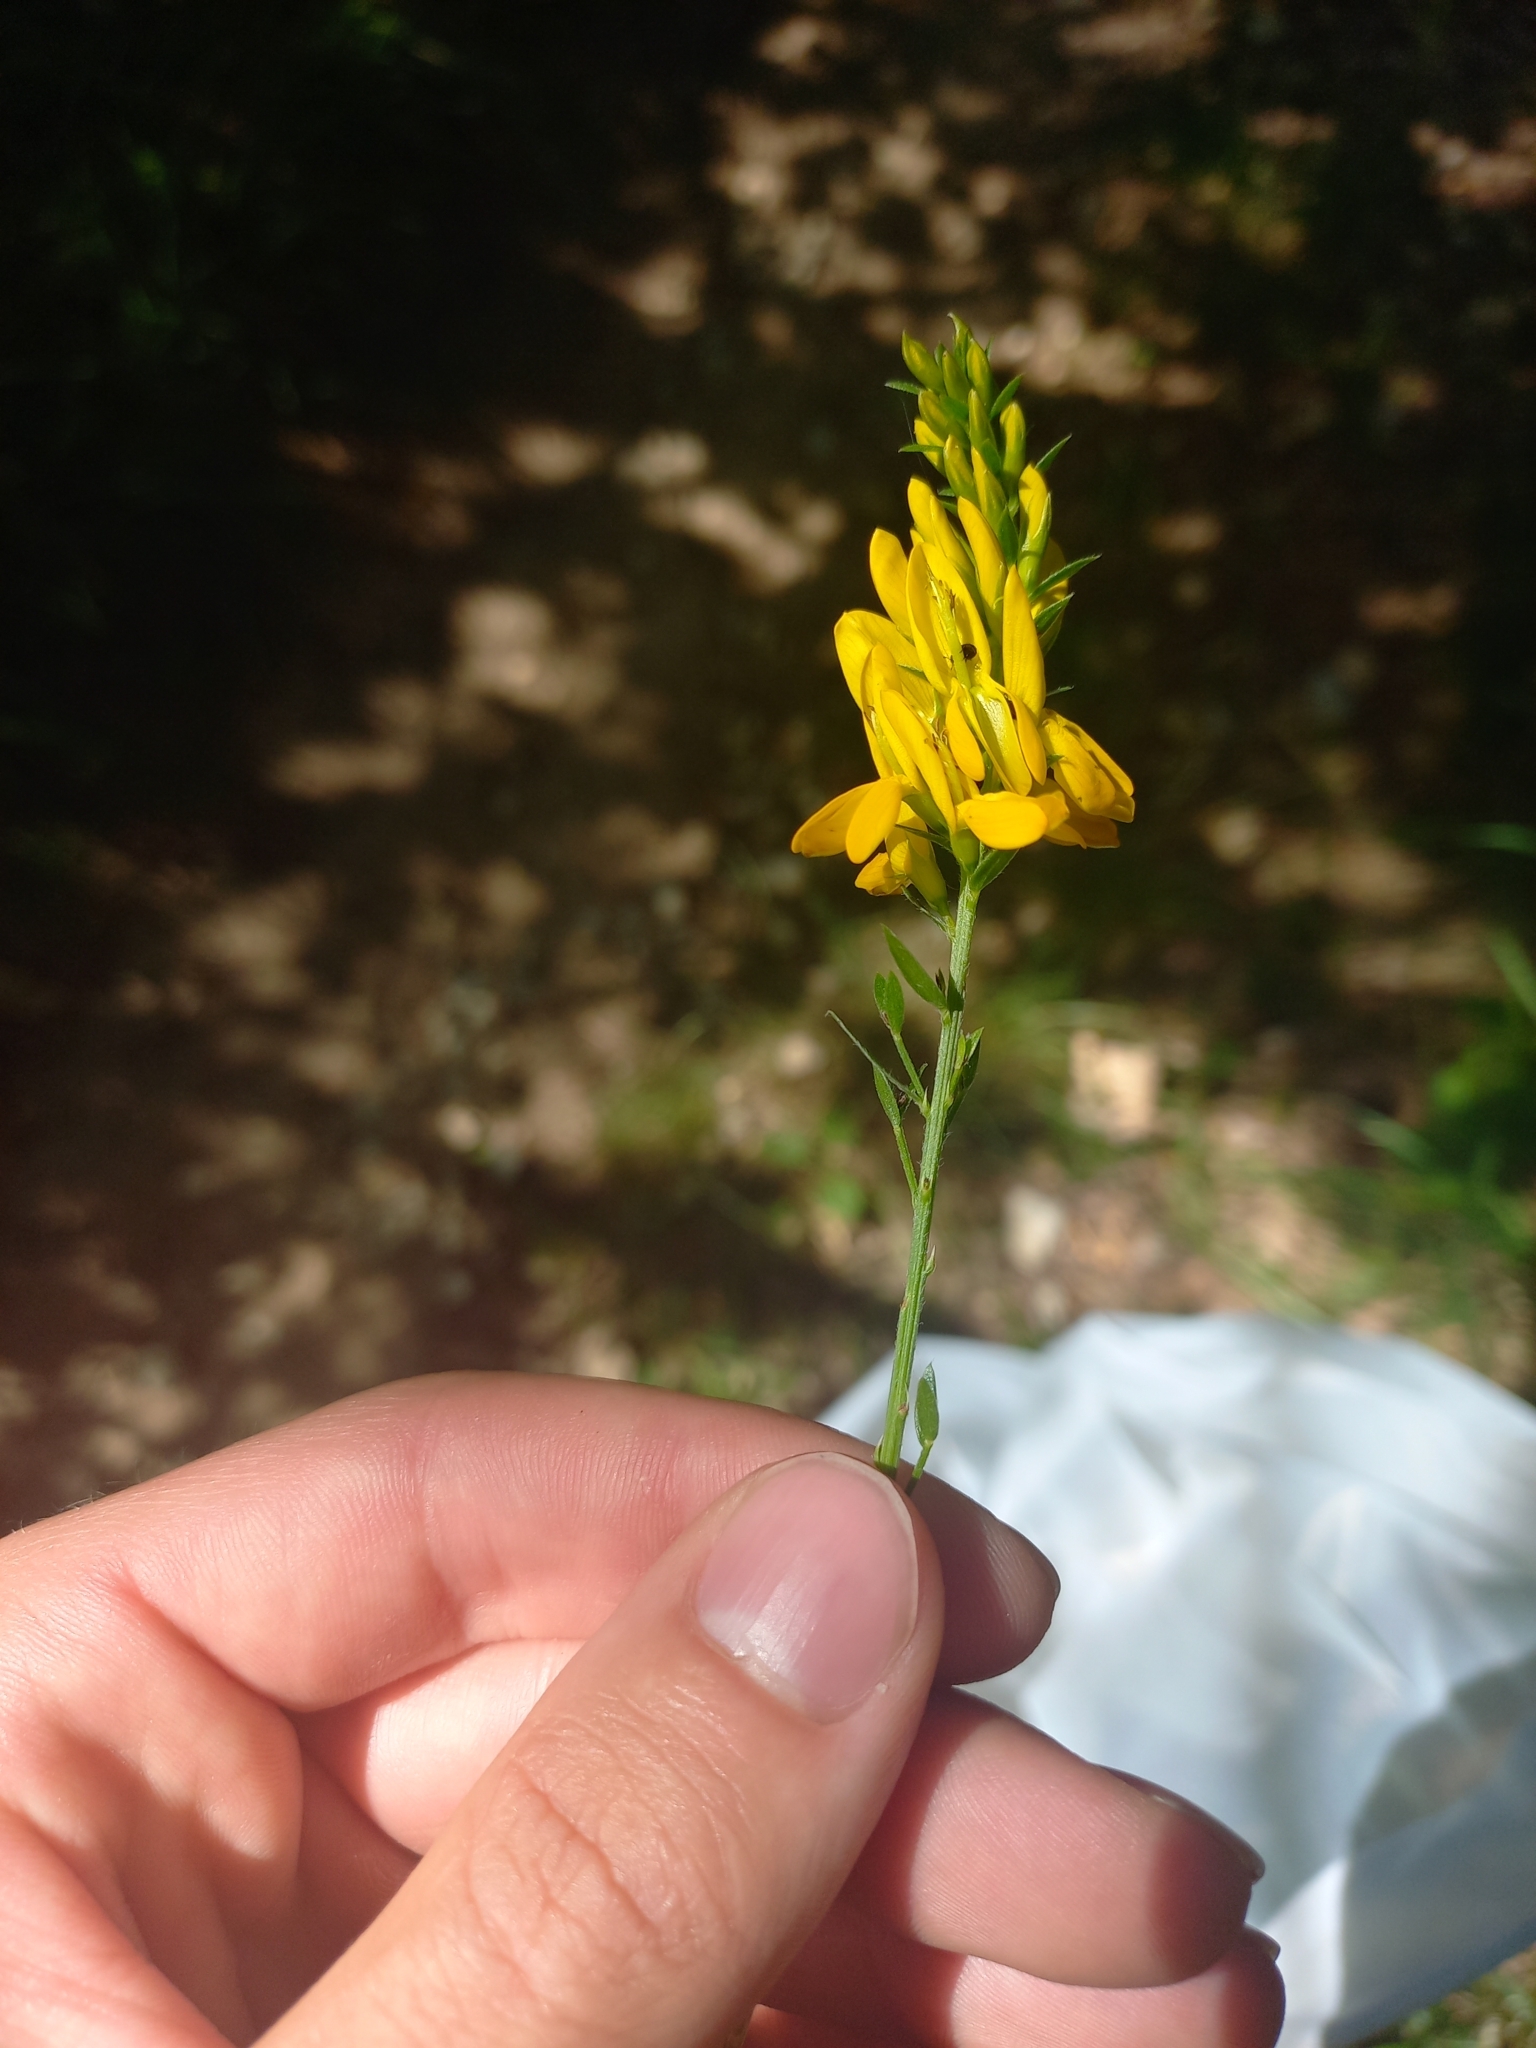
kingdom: Plantae
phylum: Tracheophyta
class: Magnoliopsida
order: Fabales
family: Fabaceae
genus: Genista
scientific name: Genista tinctoria
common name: Dyer's greenweed
